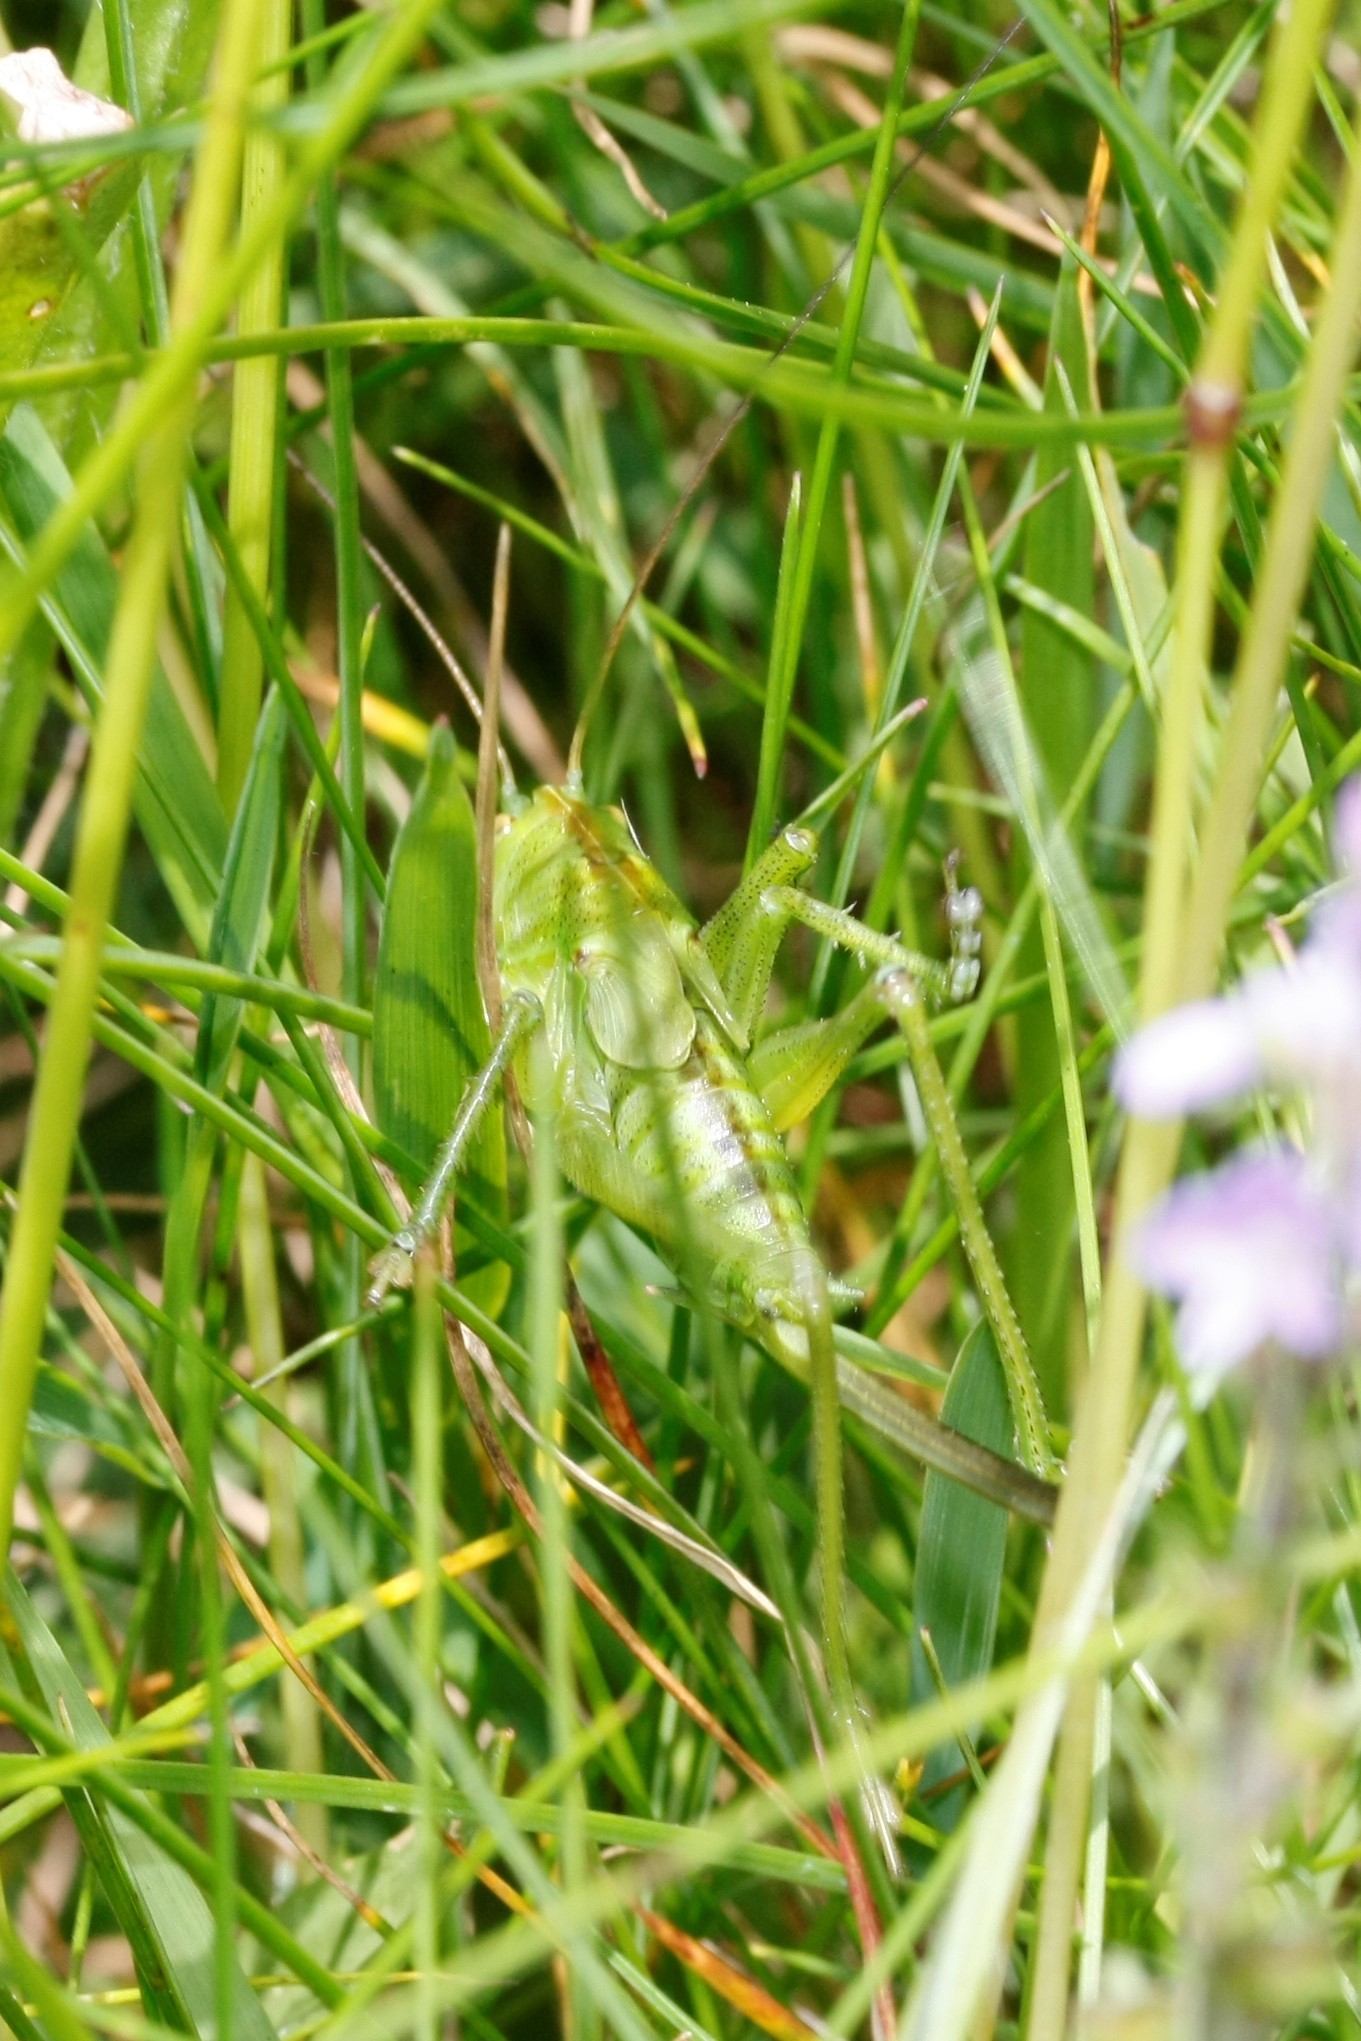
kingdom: Animalia
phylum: Arthropoda
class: Insecta
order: Orthoptera
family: Tettigoniidae
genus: Tettigonia
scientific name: Tettigonia cantans
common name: Upland green bush-cricket
